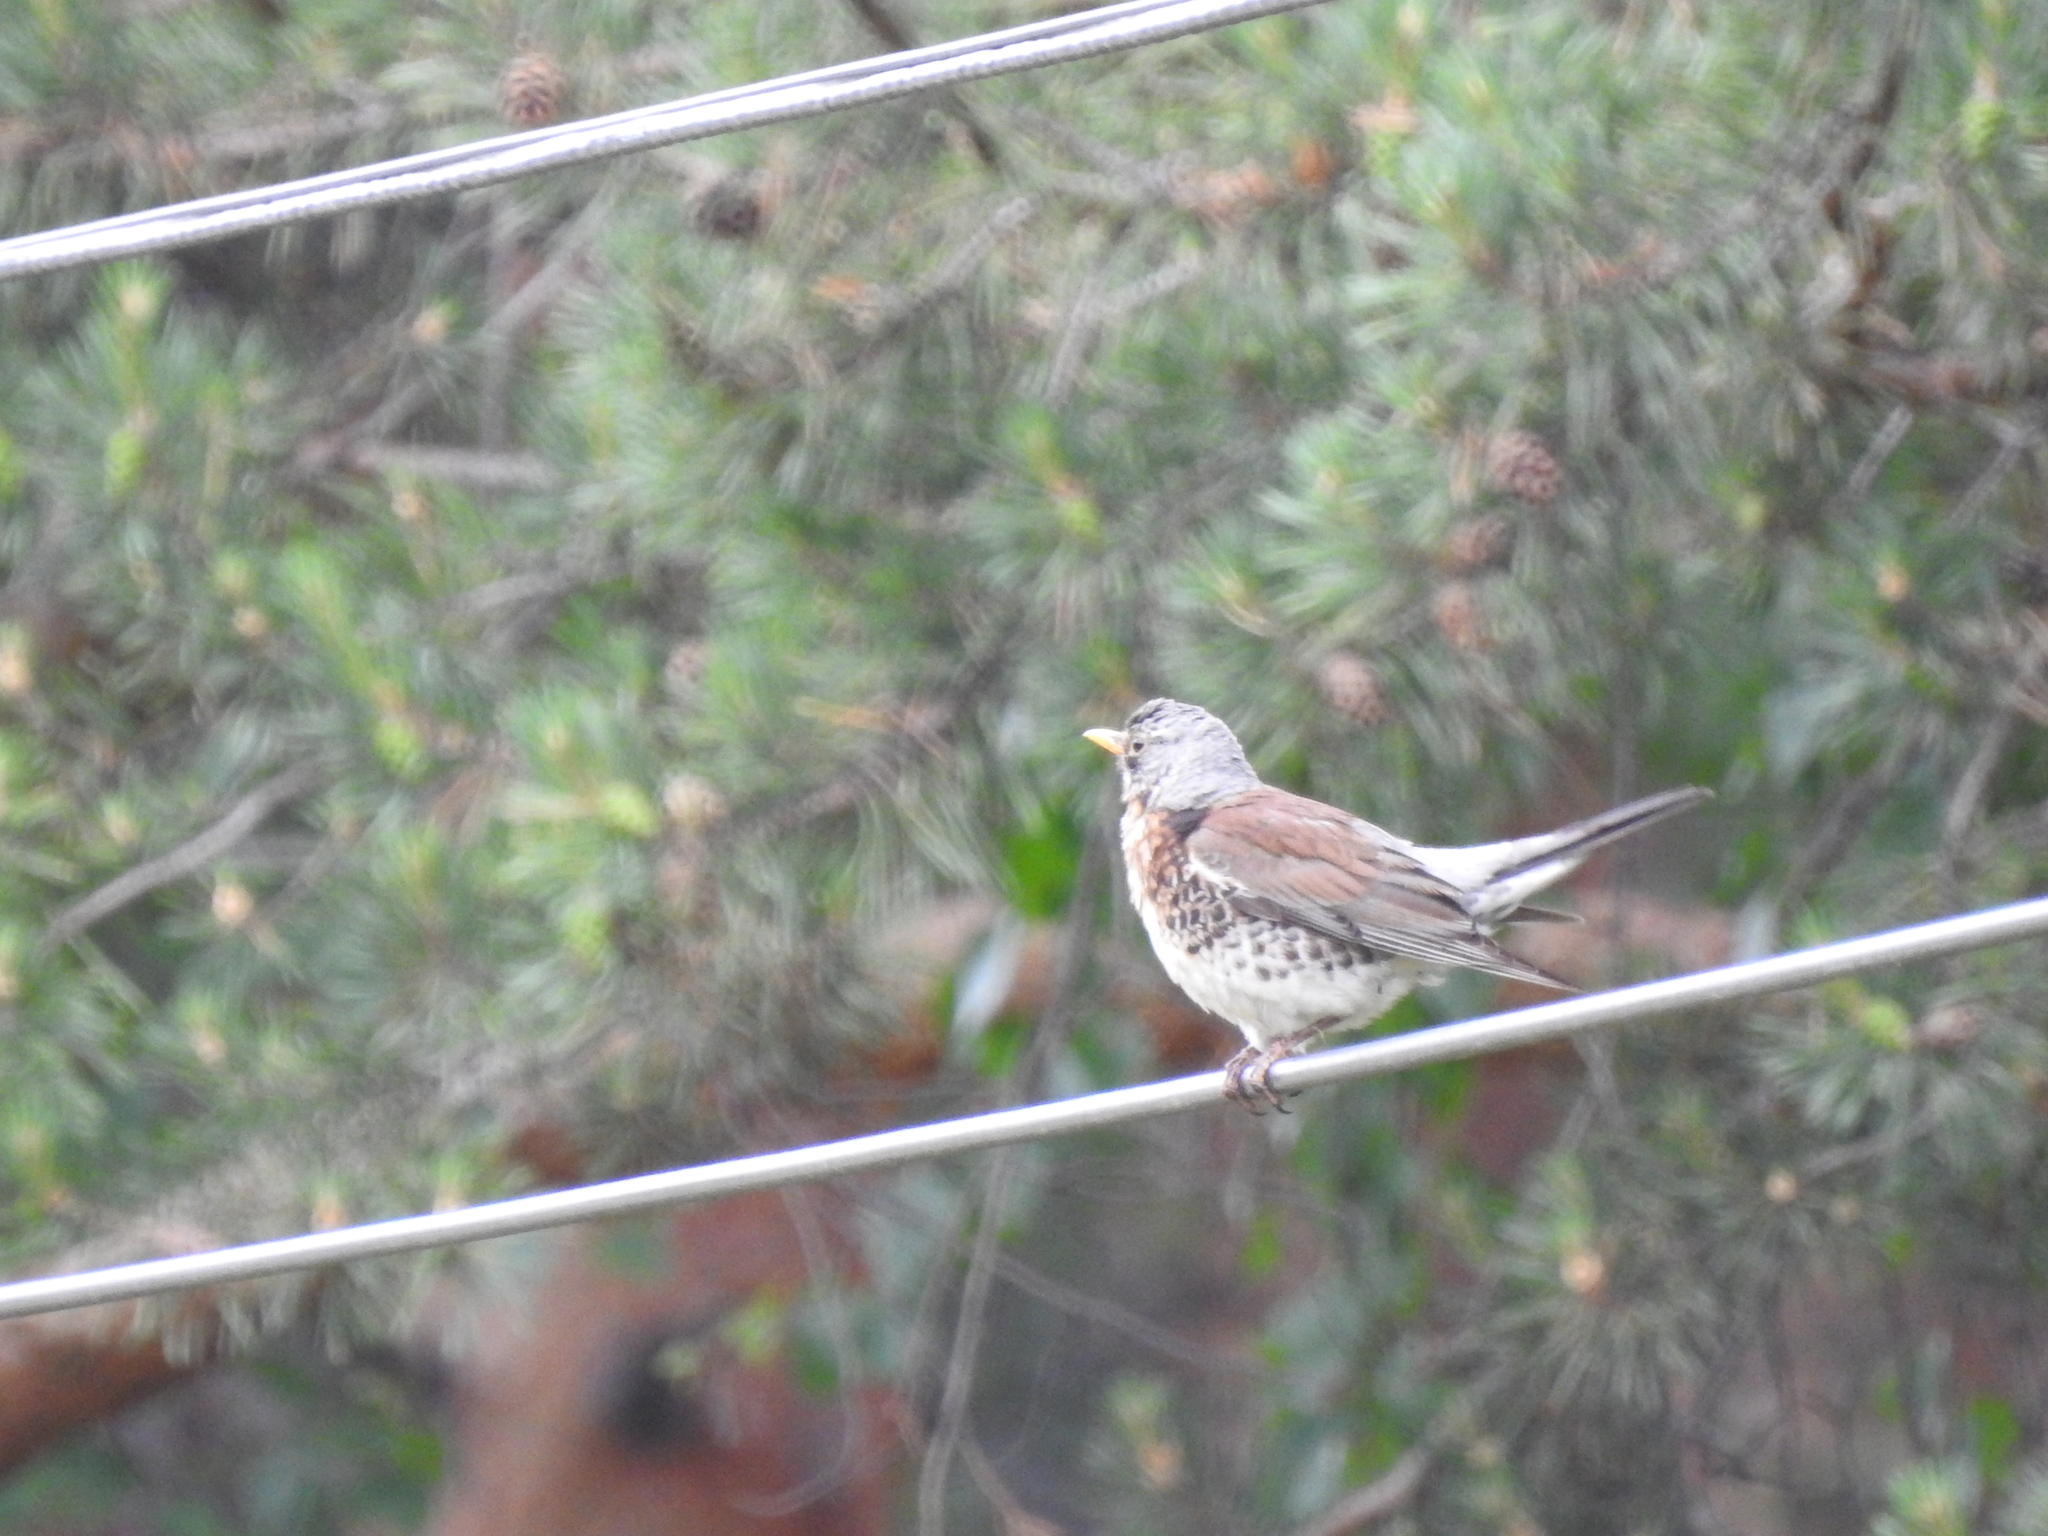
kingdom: Animalia
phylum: Chordata
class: Aves
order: Passeriformes
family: Turdidae
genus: Turdus
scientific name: Turdus pilaris
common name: Fieldfare
